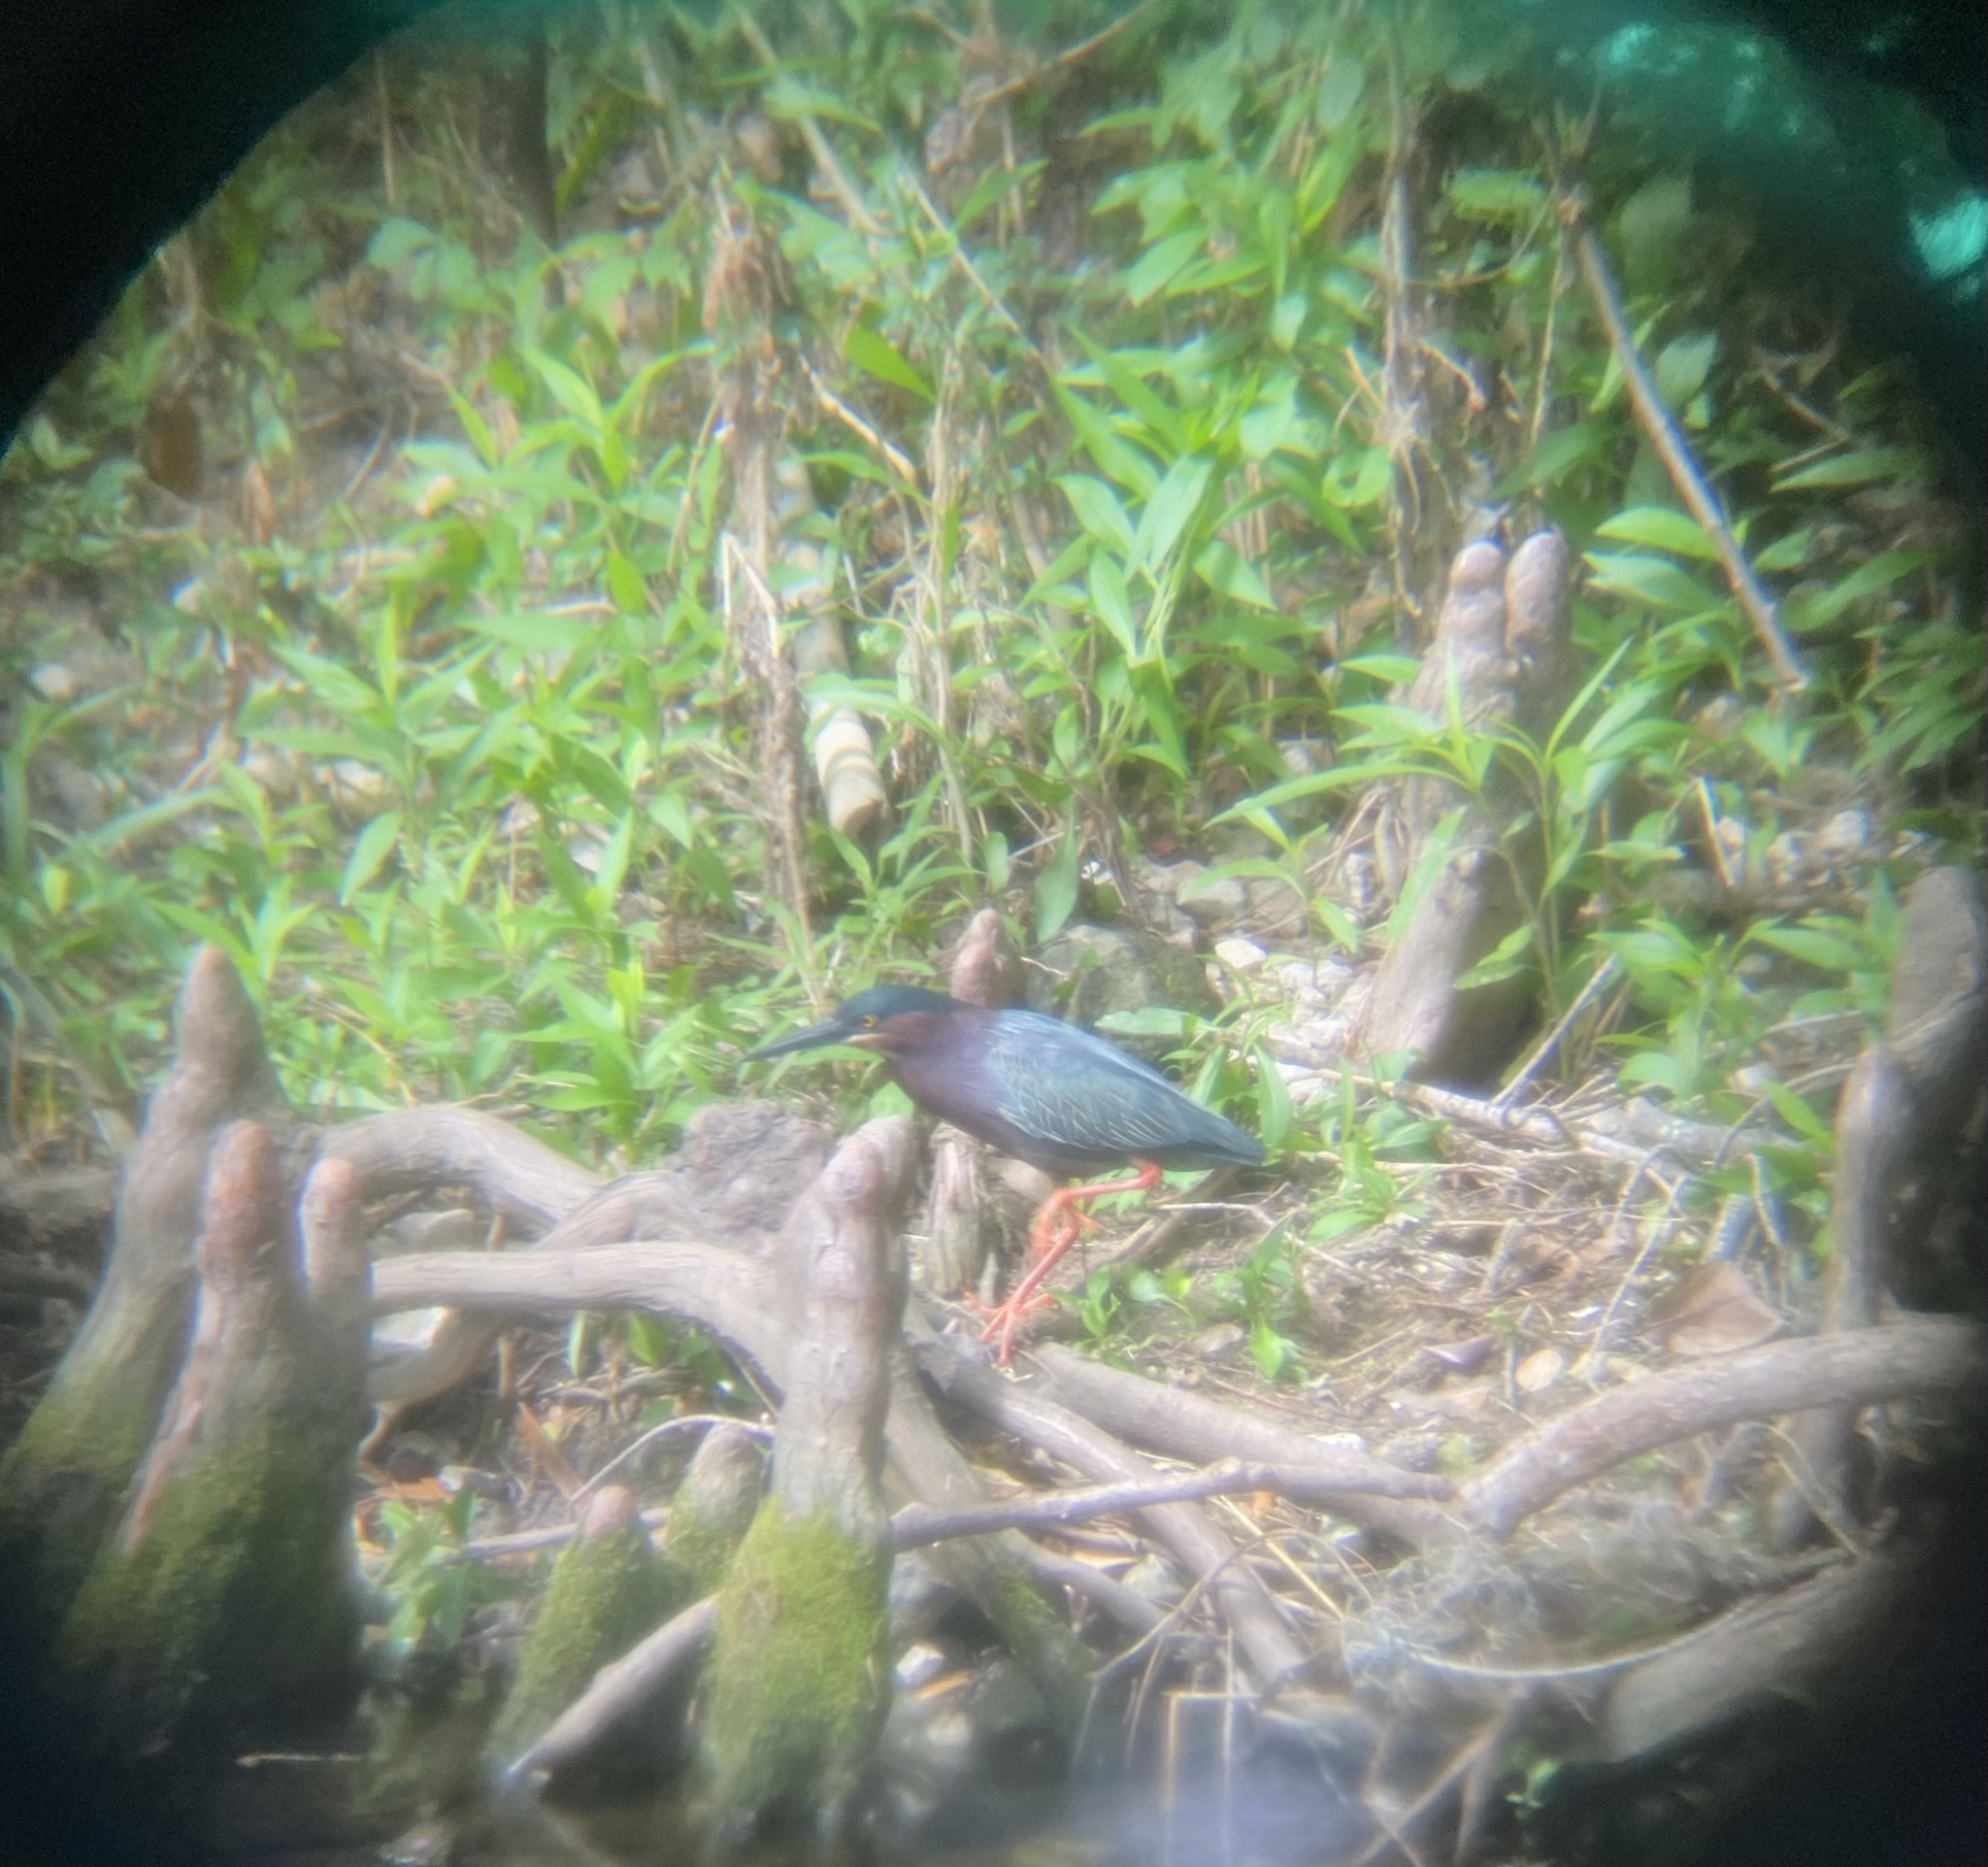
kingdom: Animalia
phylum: Chordata
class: Aves
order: Pelecaniformes
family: Ardeidae
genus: Butorides
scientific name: Butorides virescens
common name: Green heron
